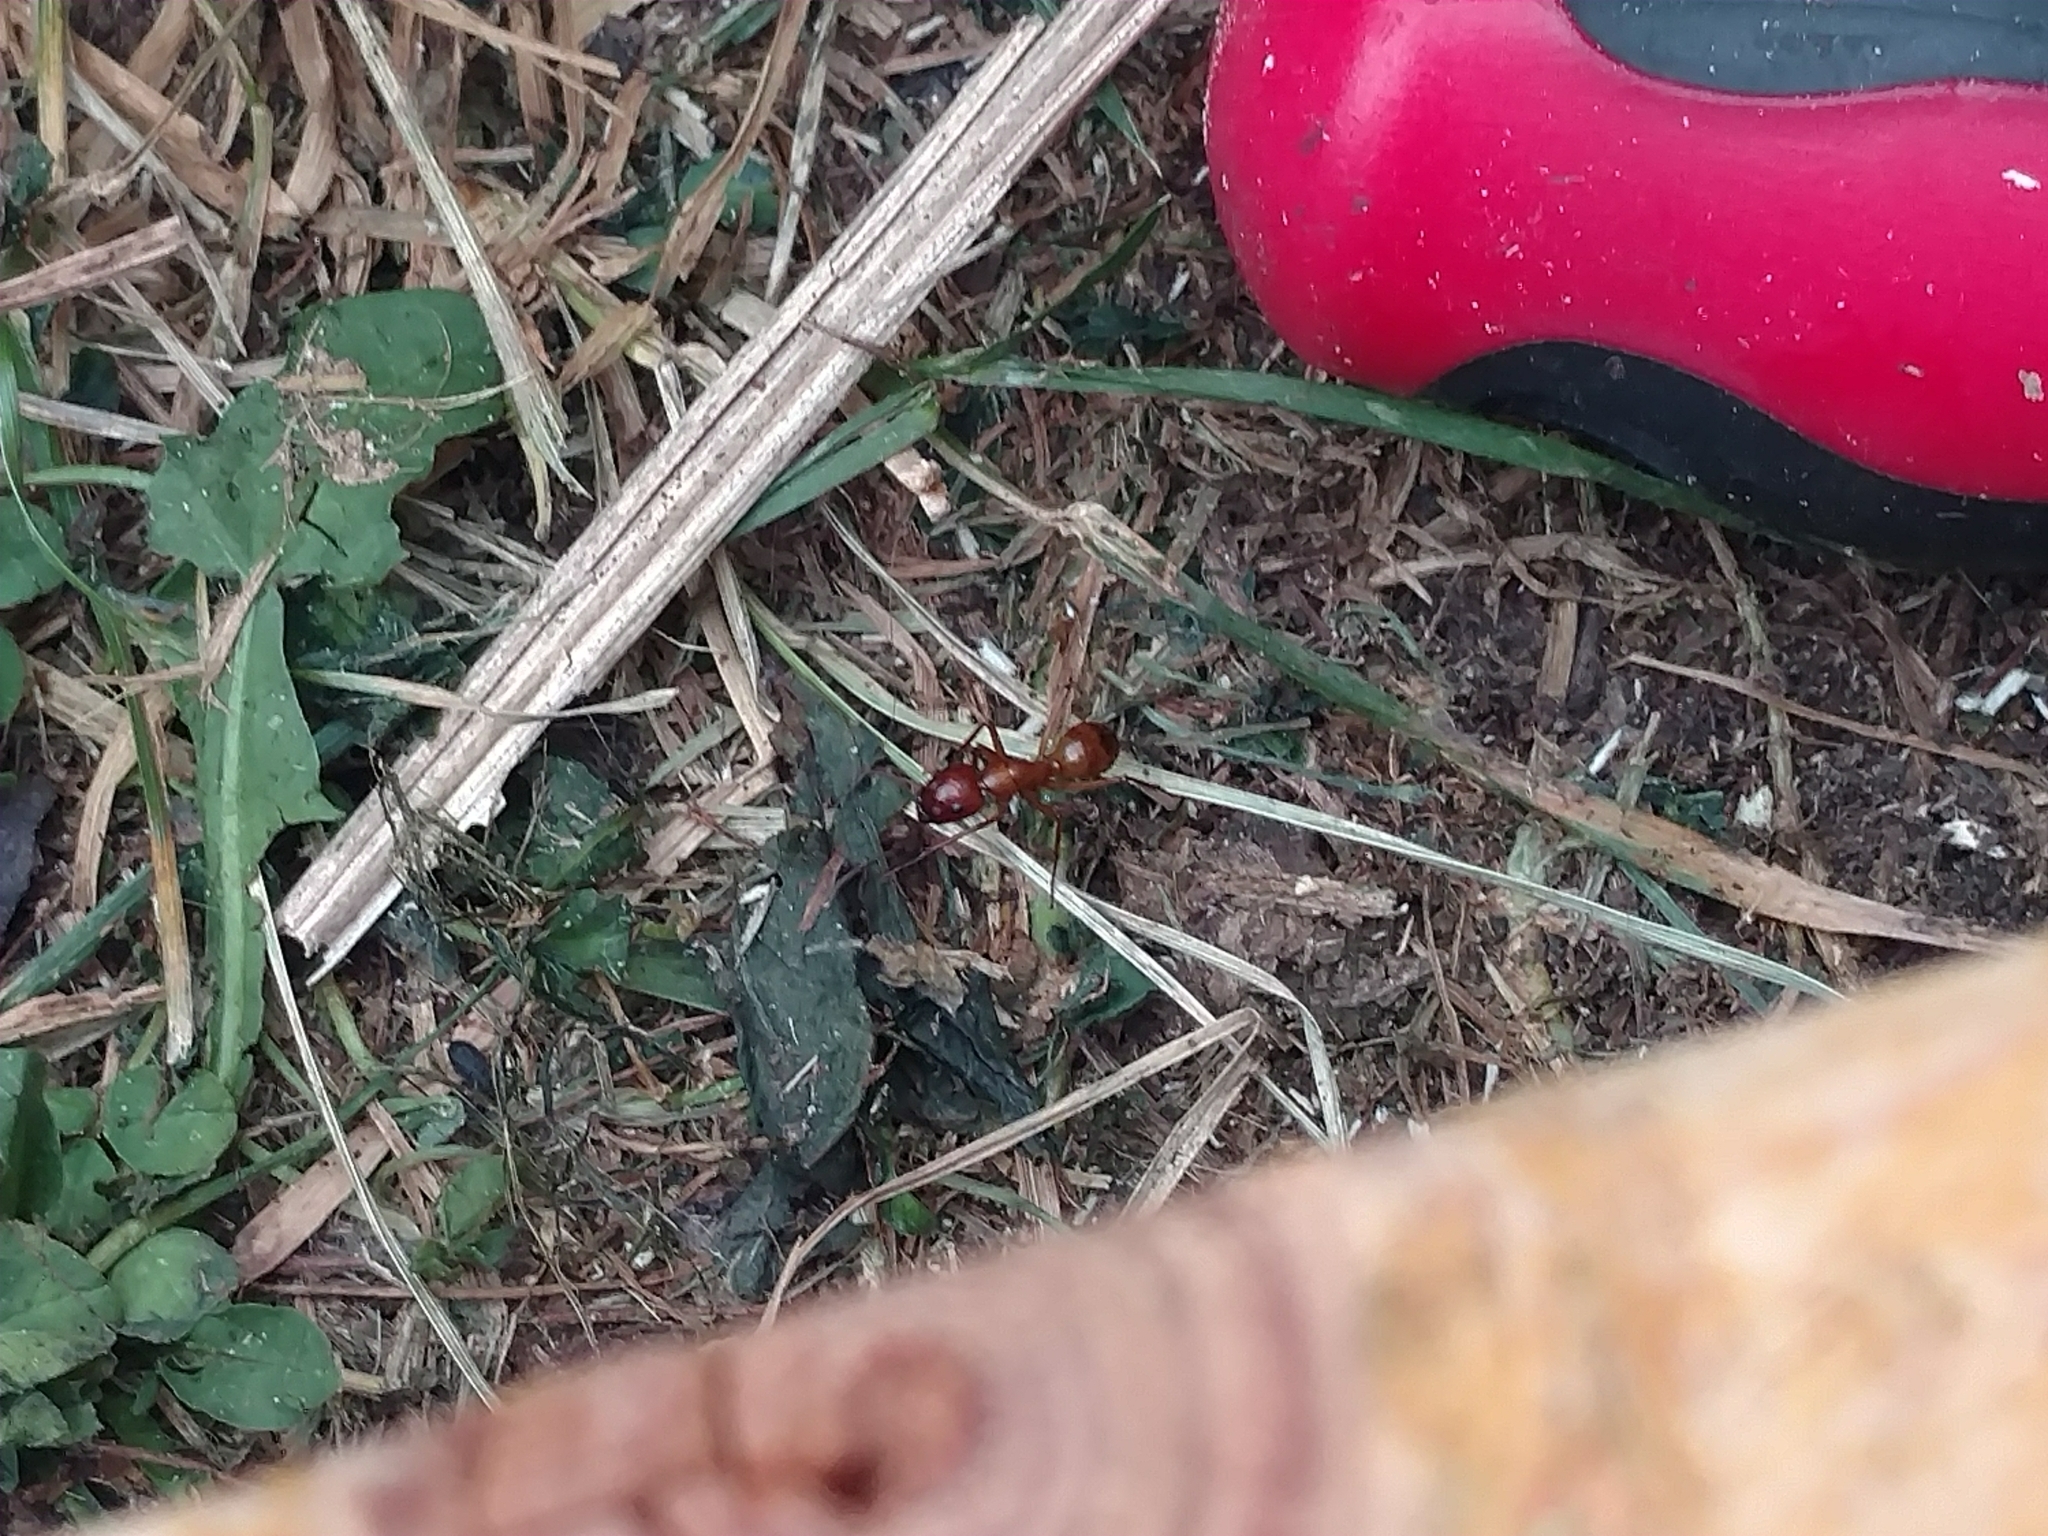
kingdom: Animalia
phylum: Arthropoda
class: Insecta
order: Hymenoptera
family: Formicidae
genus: Camponotus
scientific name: Camponotus castaneus
